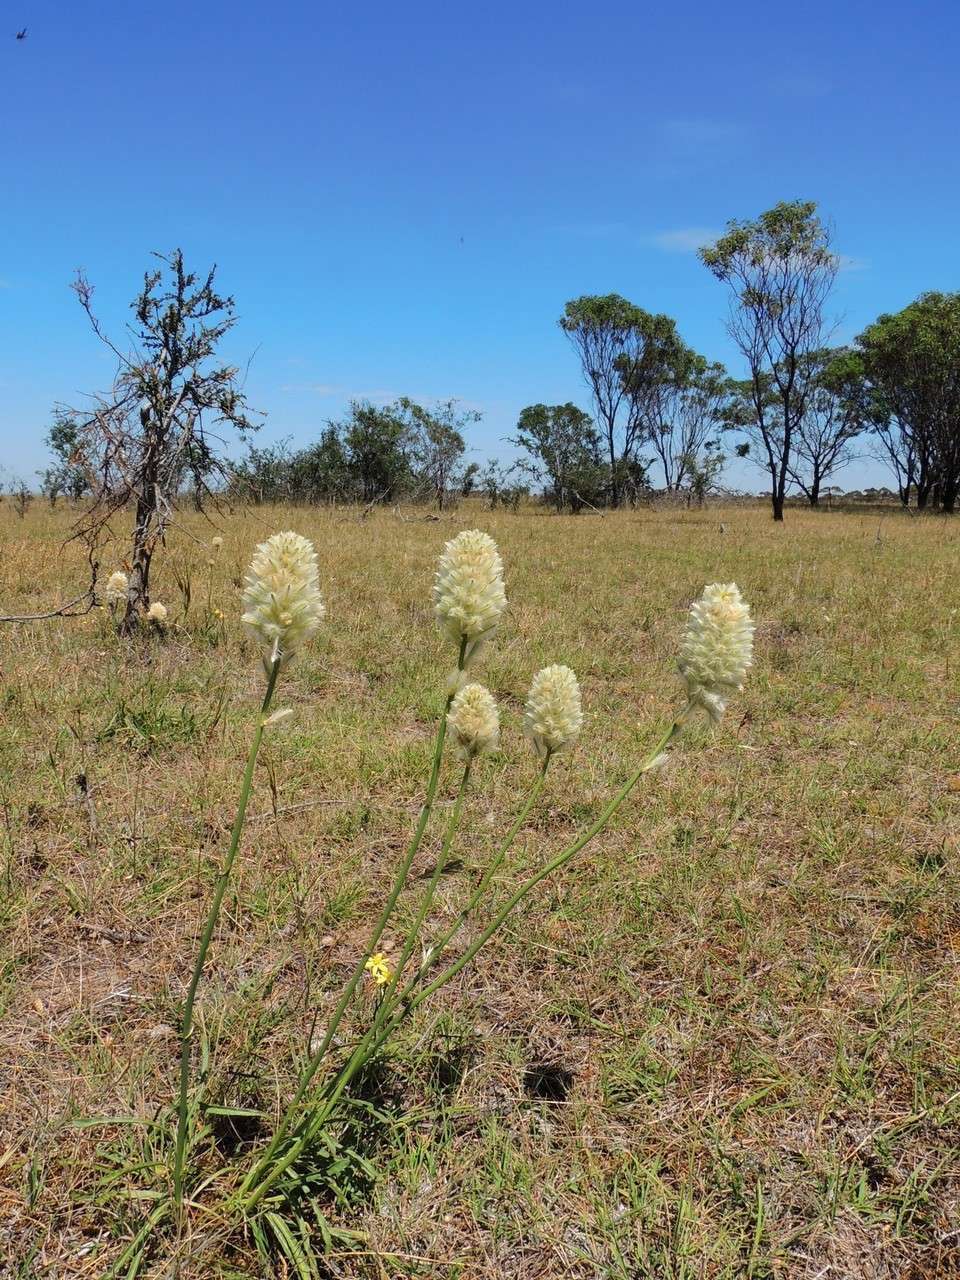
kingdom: Plantae
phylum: Tracheophyta
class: Magnoliopsida
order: Caryophyllales
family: Amaranthaceae
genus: Ptilotus
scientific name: Ptilotus macrocephalus
